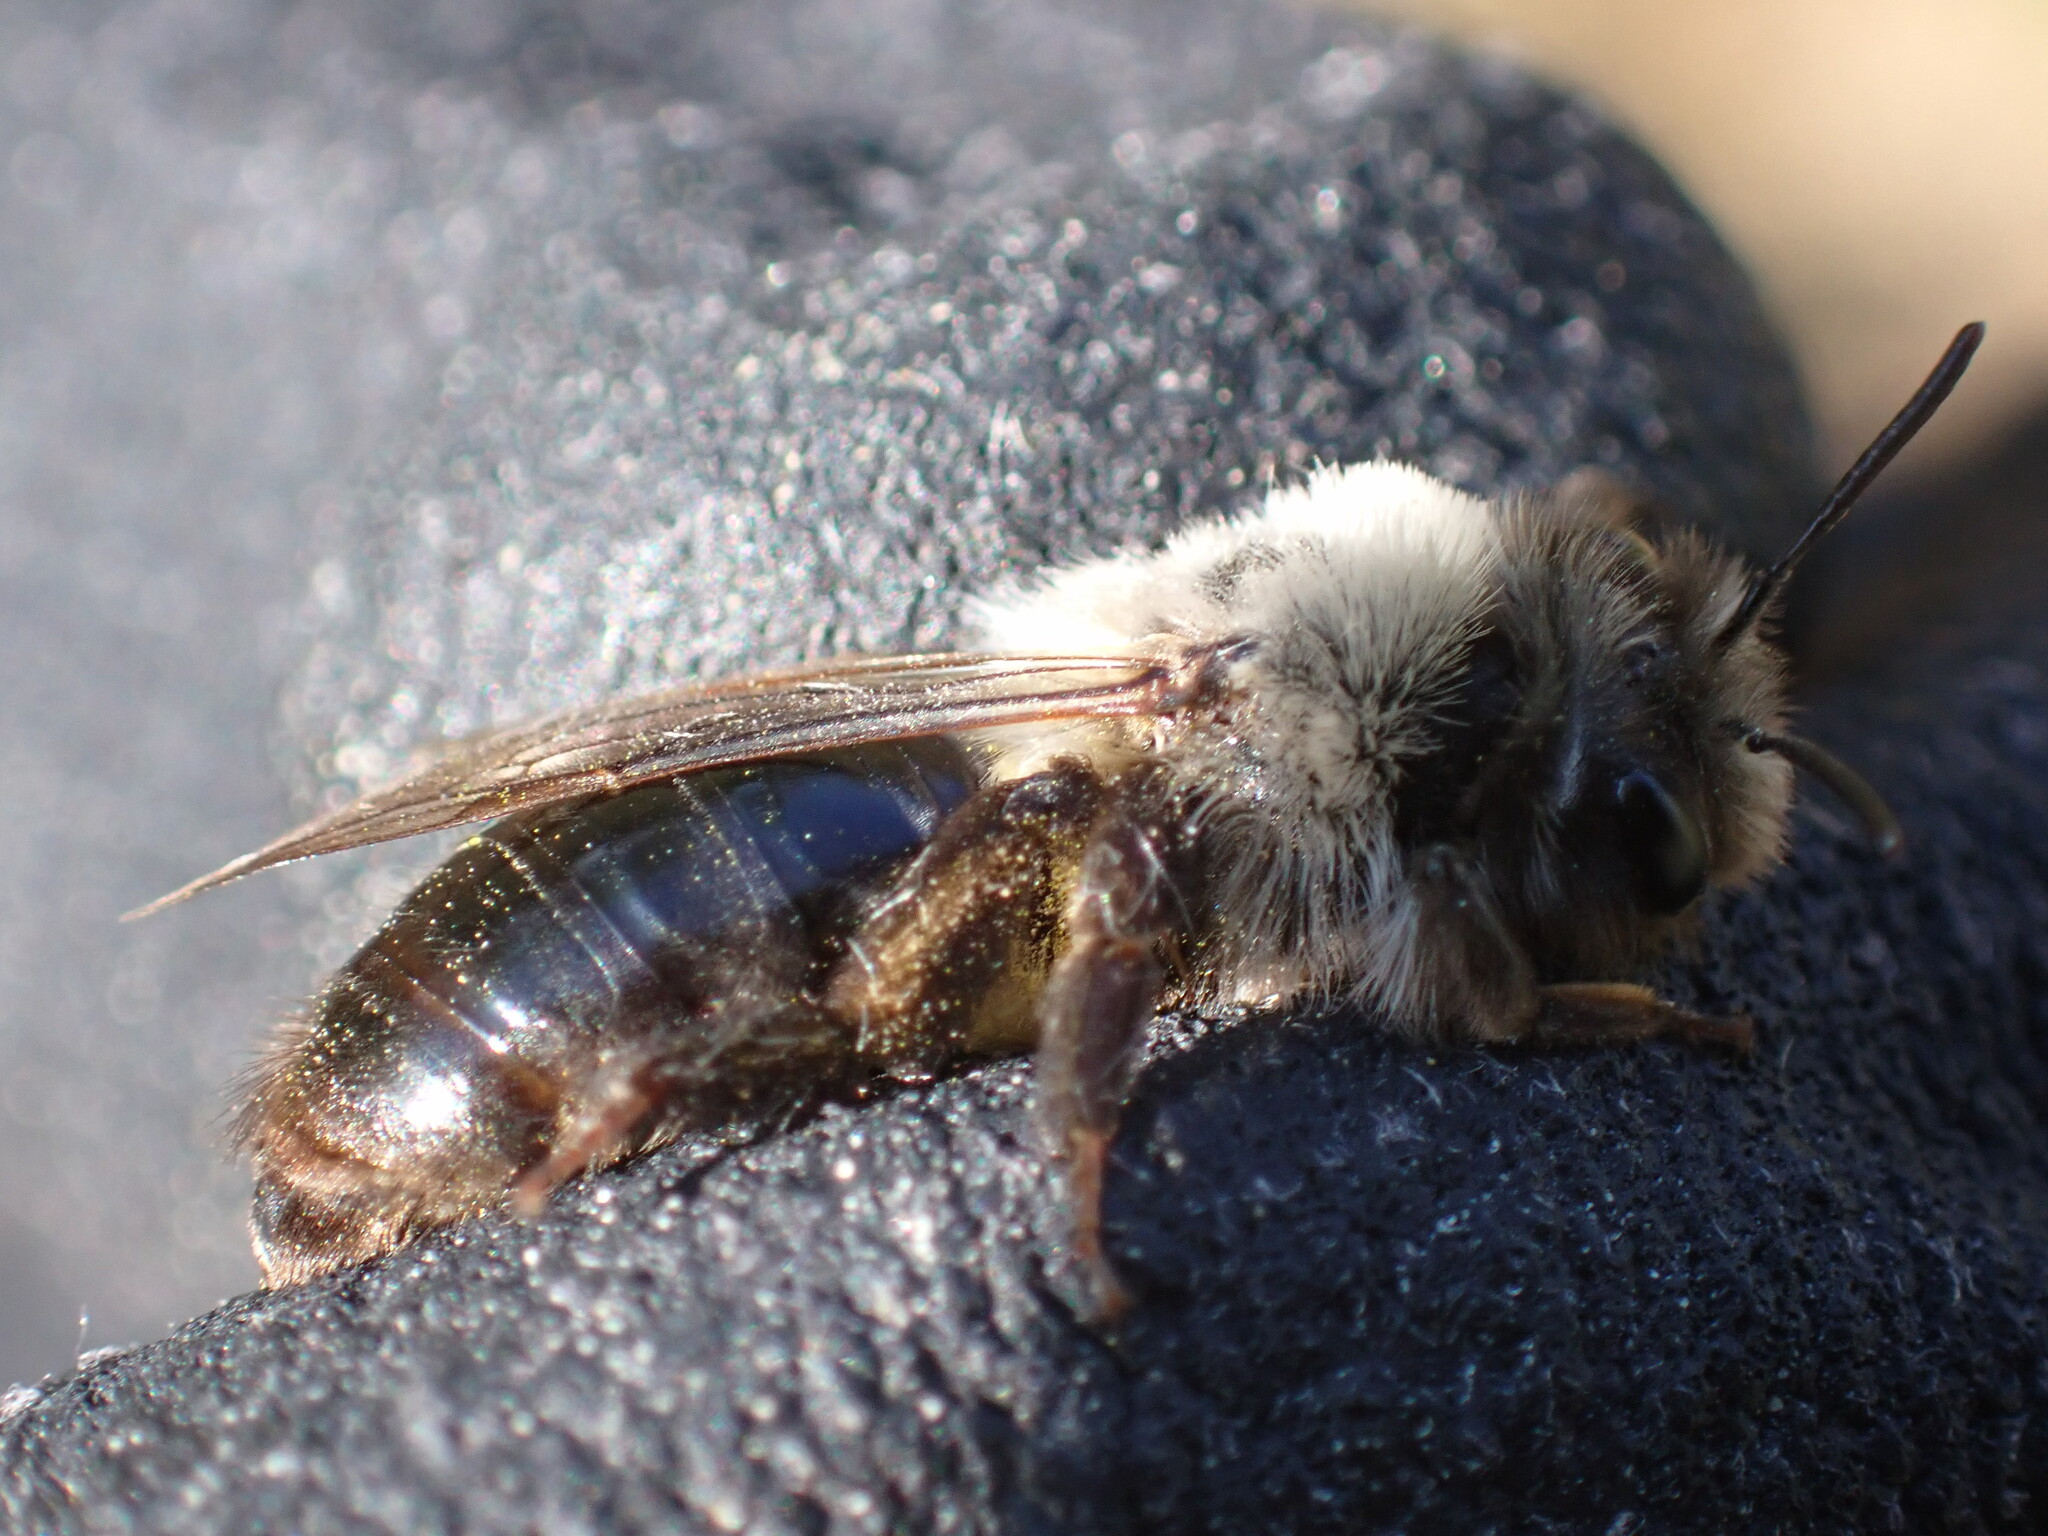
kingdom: Animalia
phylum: Arthropoda
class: Insecta
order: Hymenoptera
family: Andrenidae
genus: Andrena
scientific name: Andrena vaga
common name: Grey-backed mining bee
